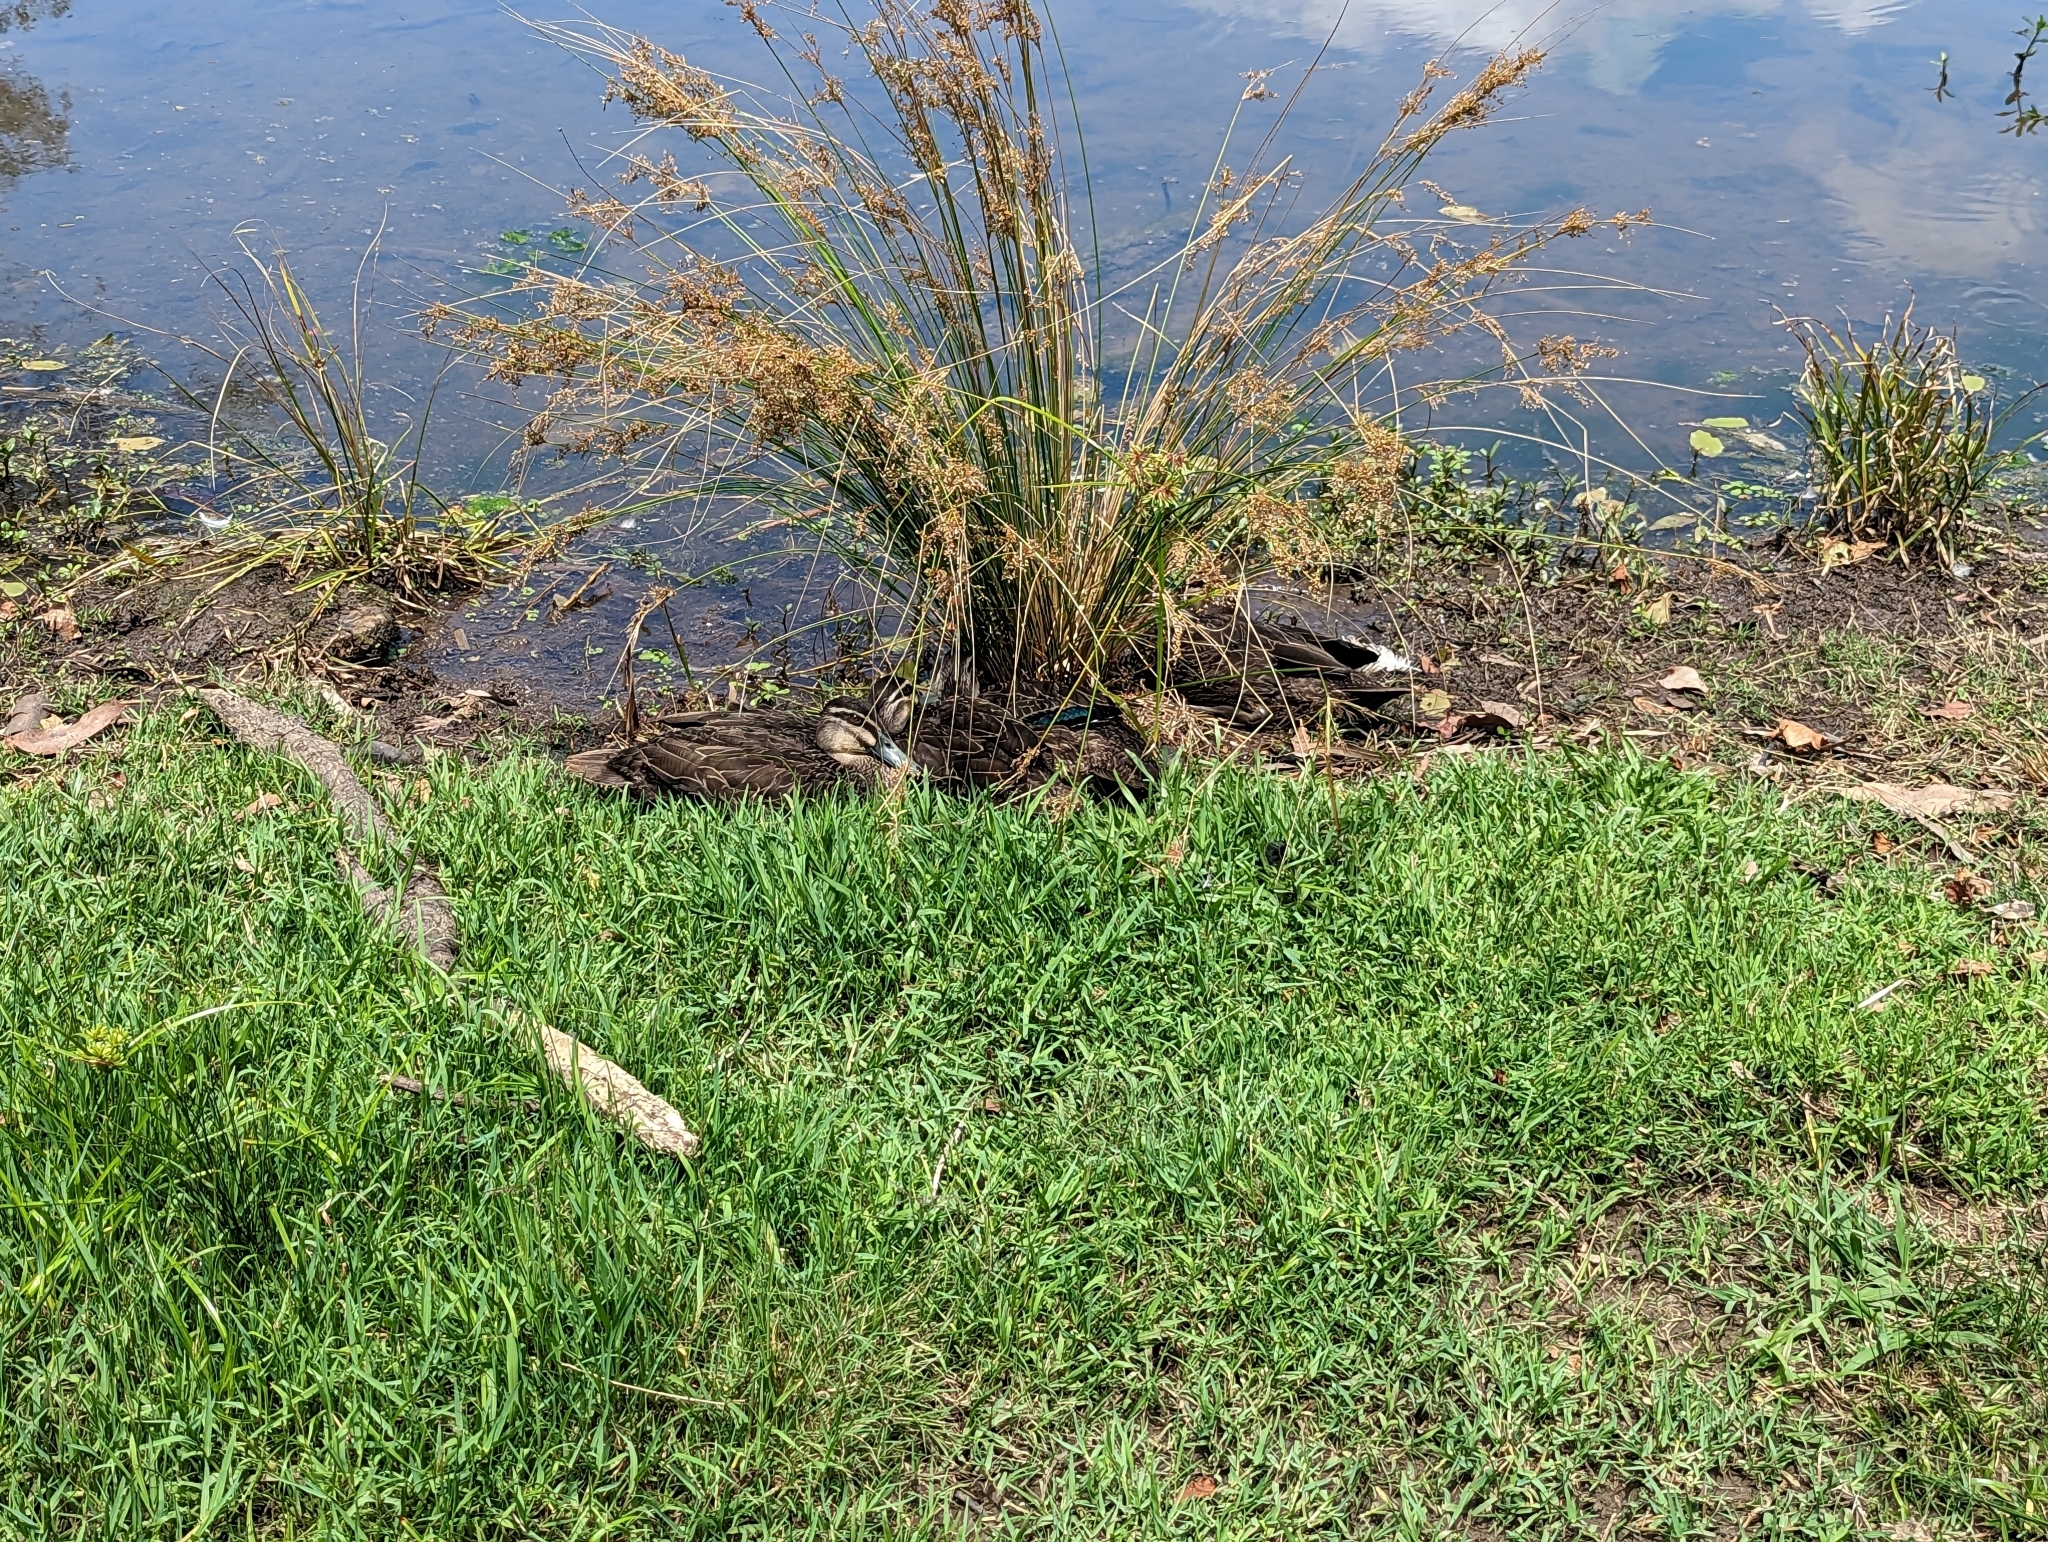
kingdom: Animalia
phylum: Chordata
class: Aves
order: Anseriformes
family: Anatidae
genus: Anas
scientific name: Anas superciliosa
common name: Pacific black duck
